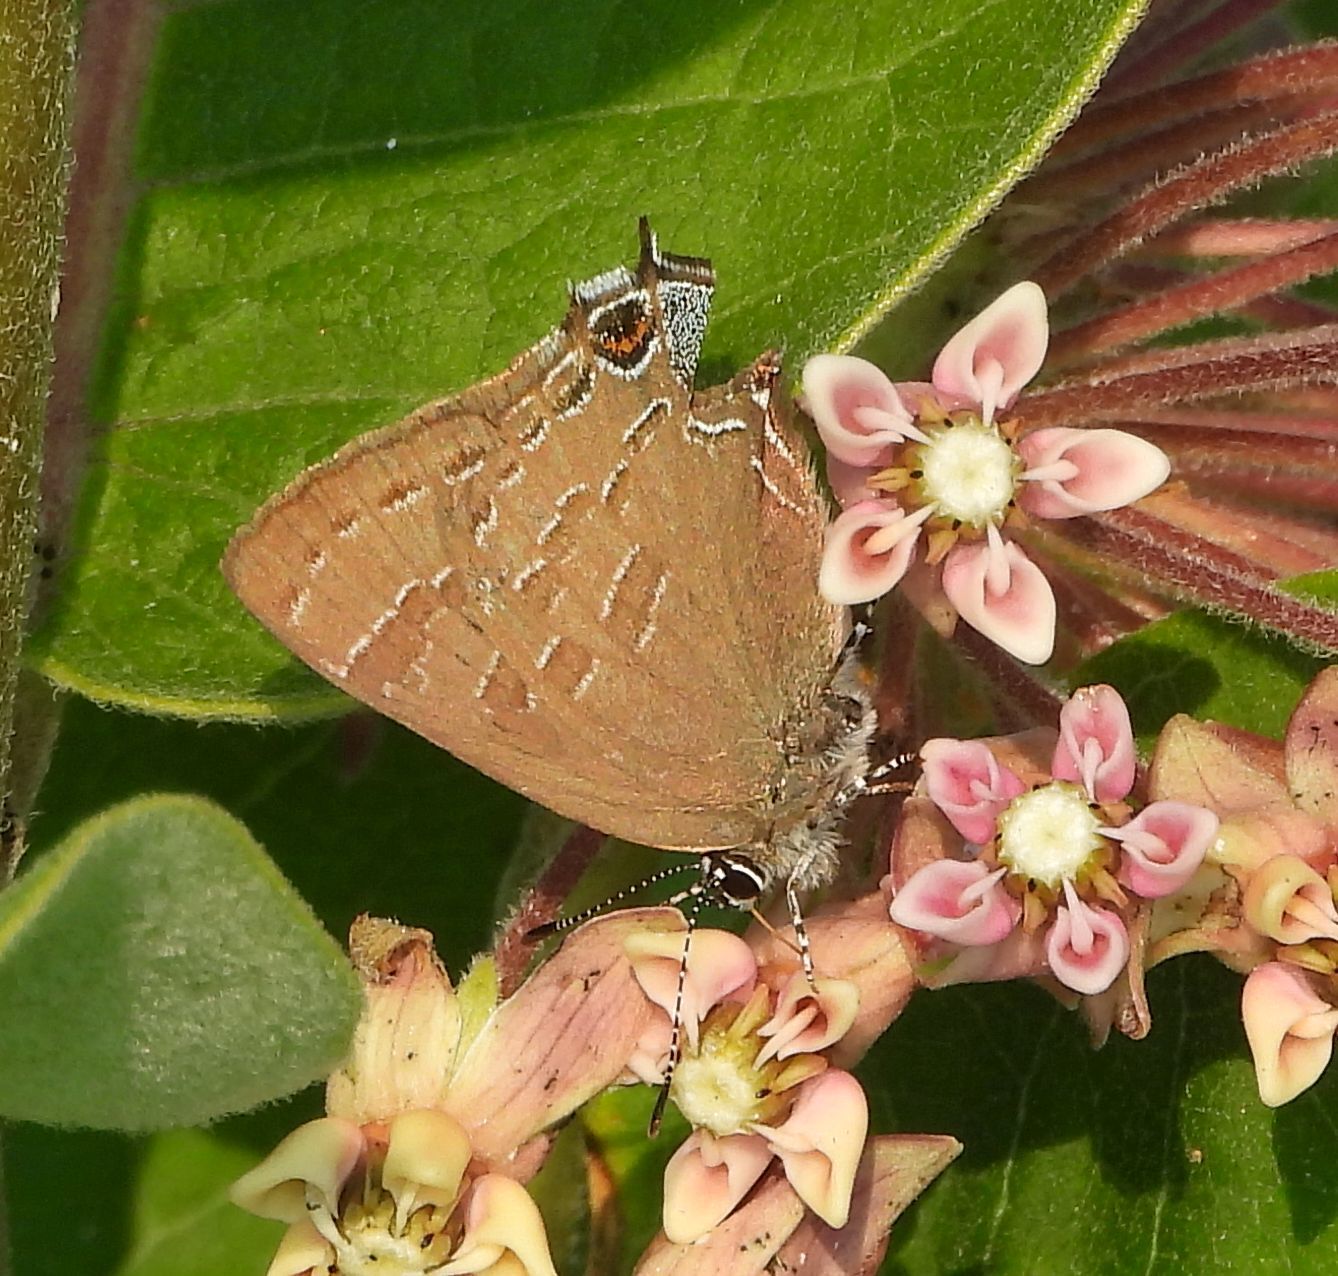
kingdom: Animalia
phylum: Arthropoda
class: Insecta
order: Lepidoptera
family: Lycaenidae
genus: Strymon
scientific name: Strymon caryaevorus
